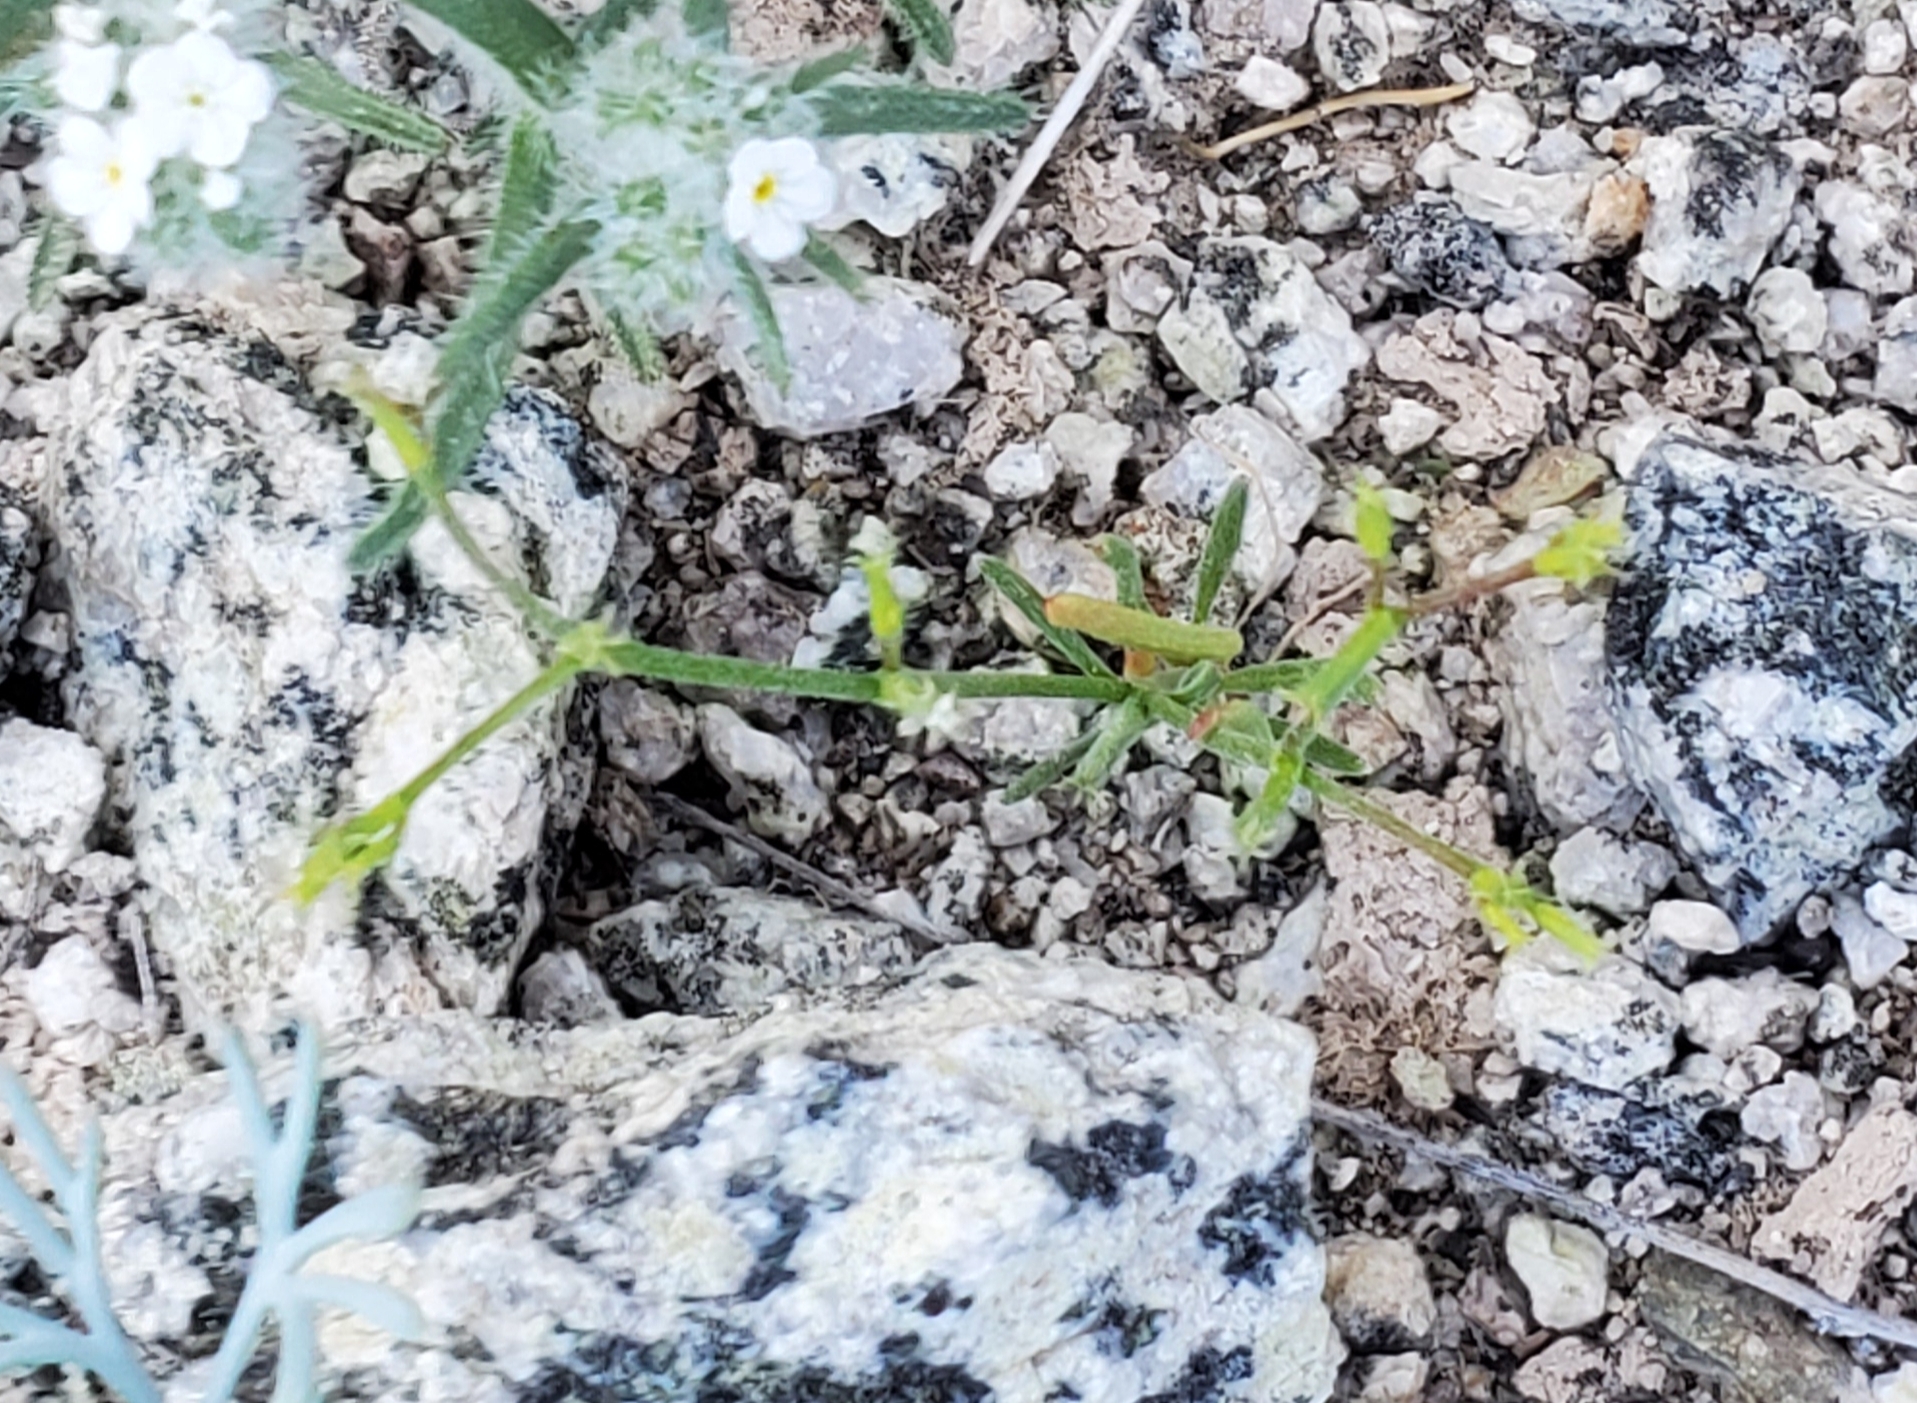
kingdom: Plantae
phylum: Tracheophyta
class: Magnoliopsida
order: Caryophyllales
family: Polygonaceae
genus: Chorizanthe
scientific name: Chorizanthe brevicornu
